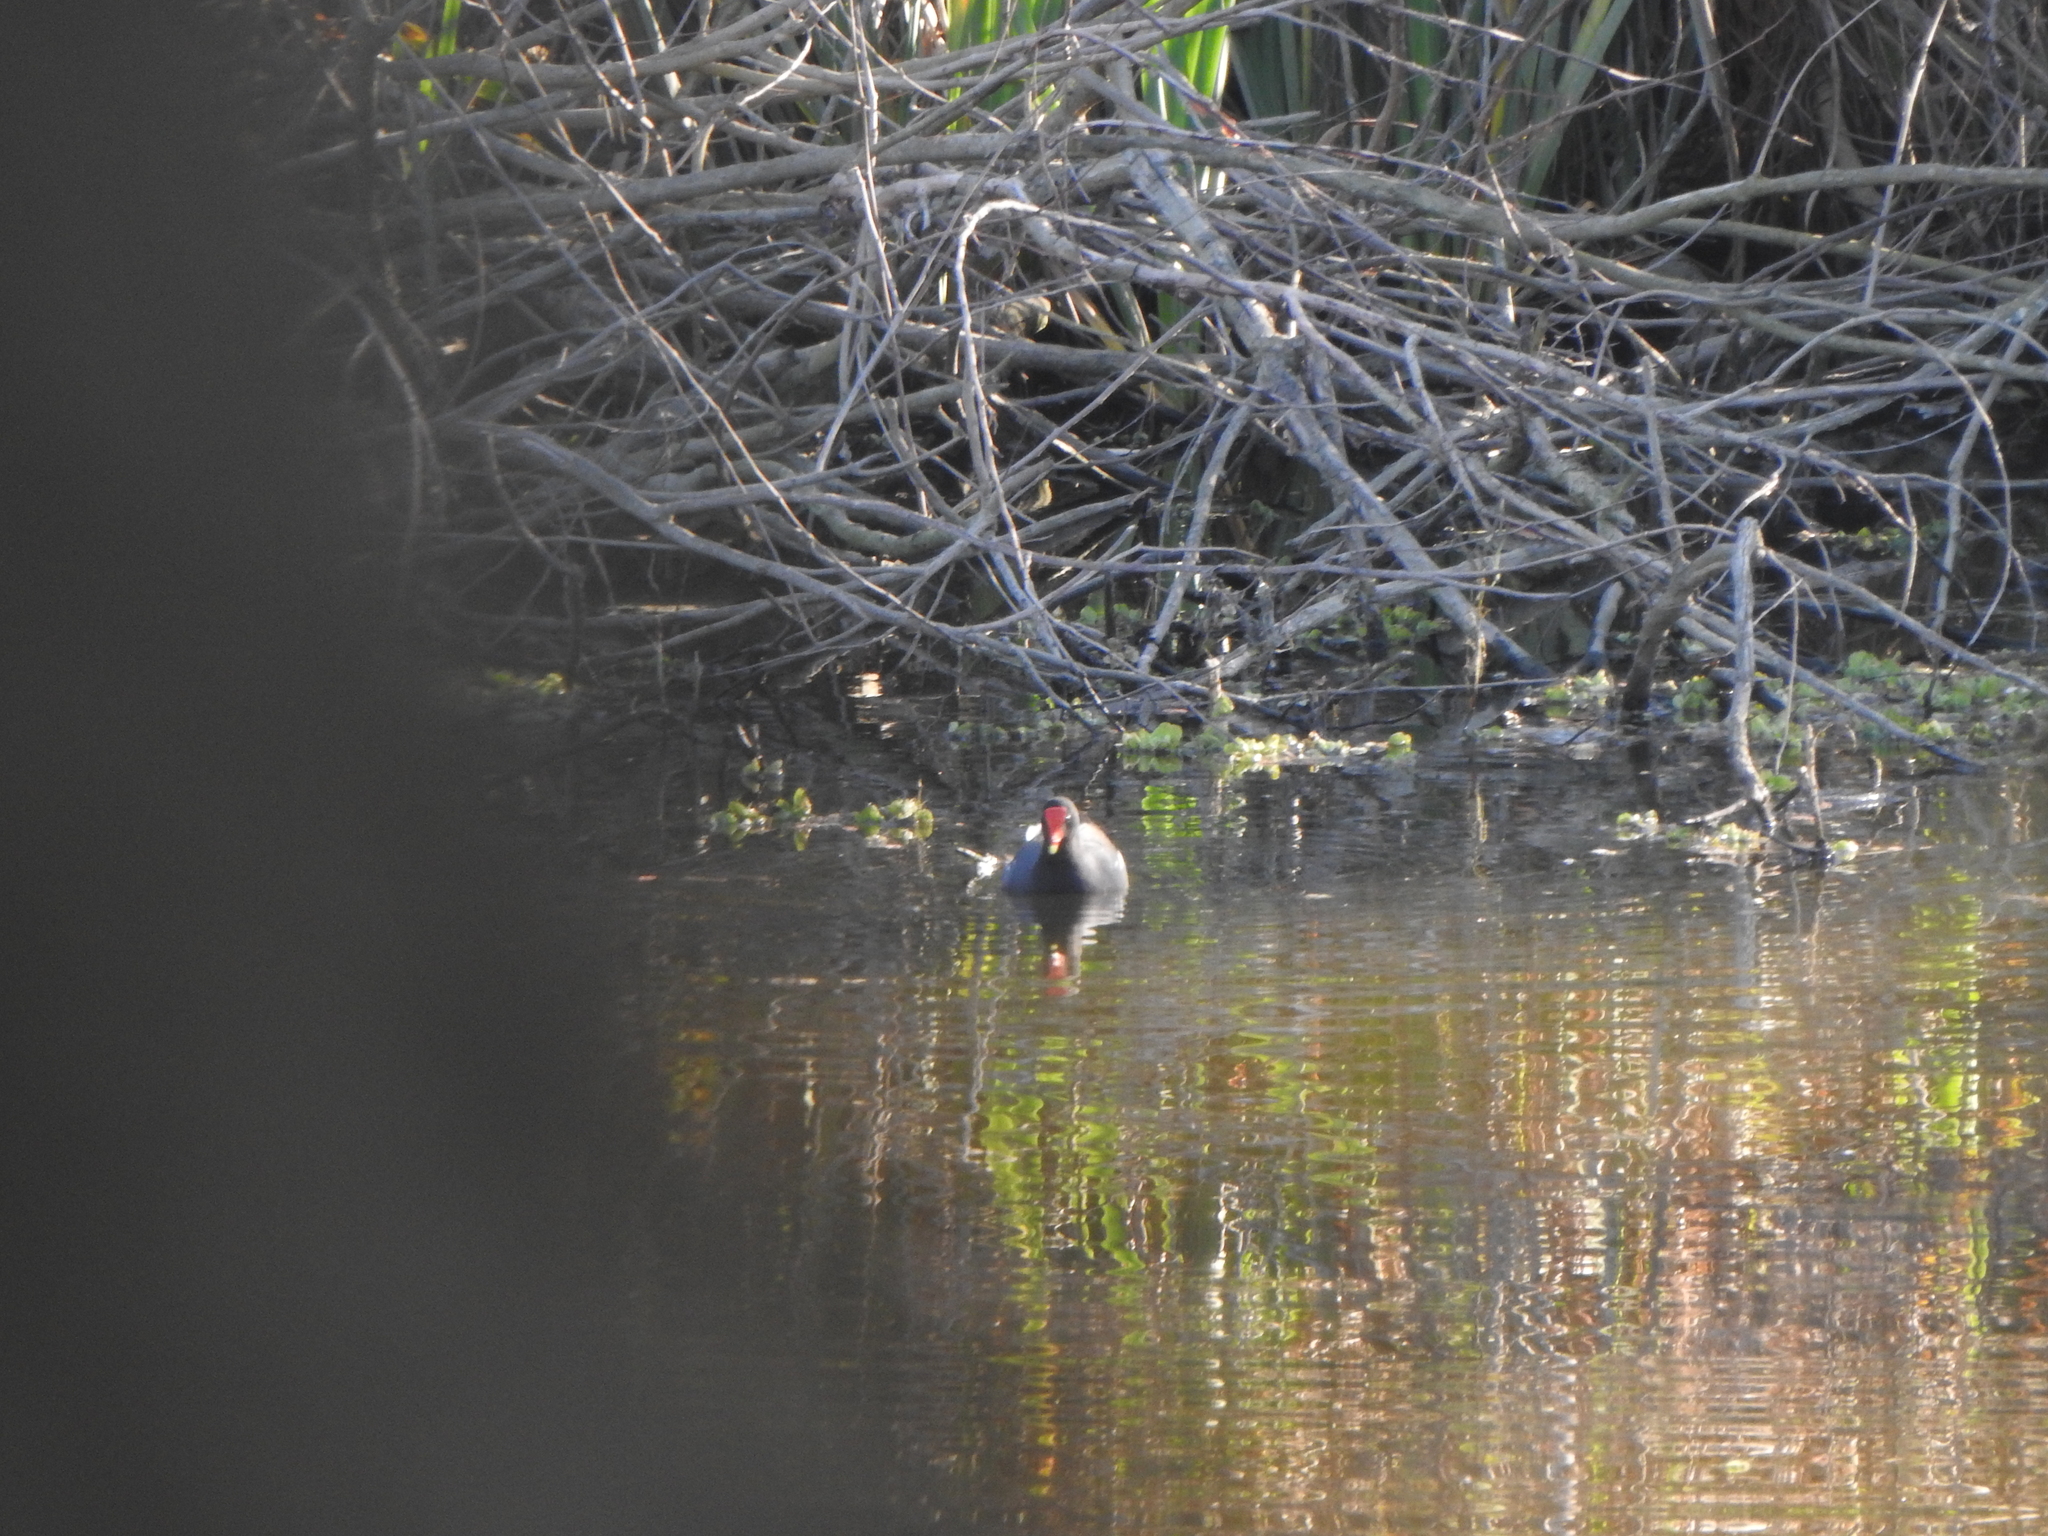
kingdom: Animalia
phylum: Chordata
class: Aves
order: Gruiformes
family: Rallidae
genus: Gallinula
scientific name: Gallinula chloropus
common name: Common moorhen
